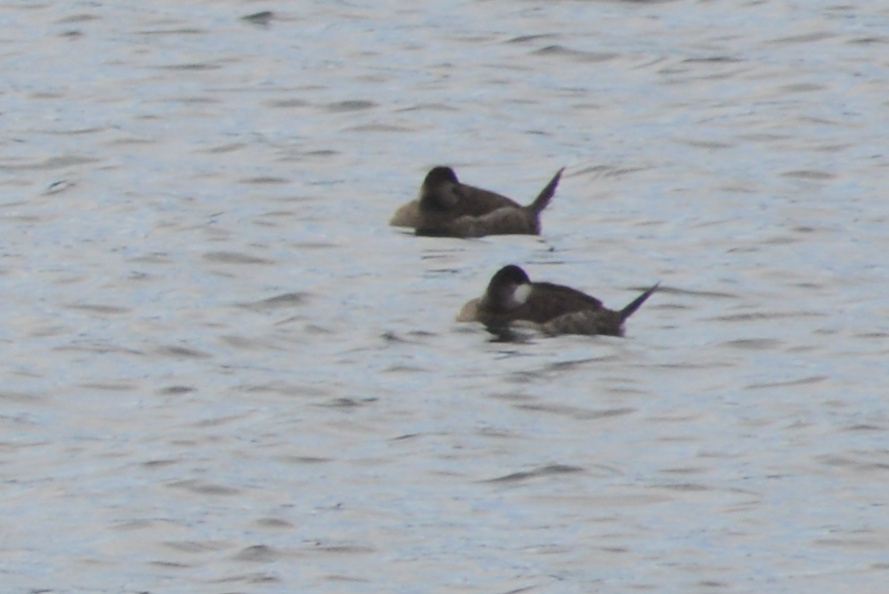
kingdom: Animalia
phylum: Chordata
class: Aves
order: Anseriformes
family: Anatidae
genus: Oxyura
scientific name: Oxyura jamaicensis
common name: Ruddy duck
